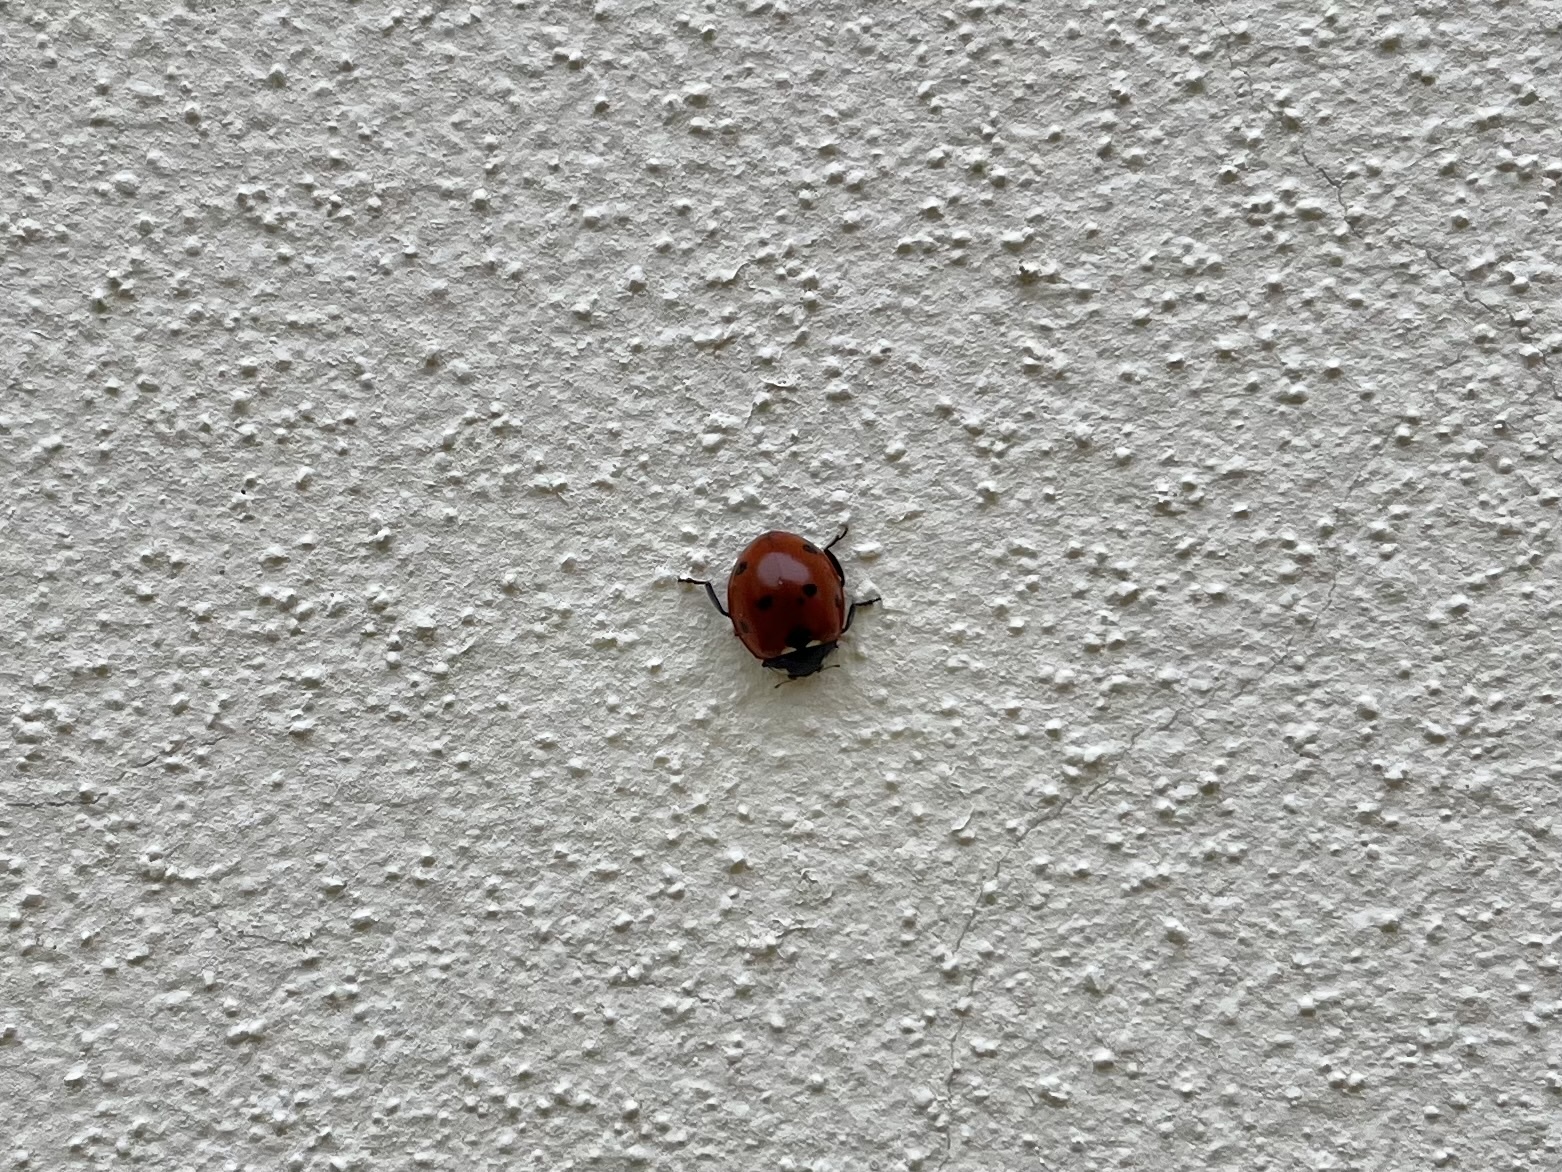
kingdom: Animalia
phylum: Arthropoda
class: Insecta
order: Coleoptera
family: Coccinellidae
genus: Coccinella
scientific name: Coccinella septempunctata
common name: Sevenspotted lady beetle
